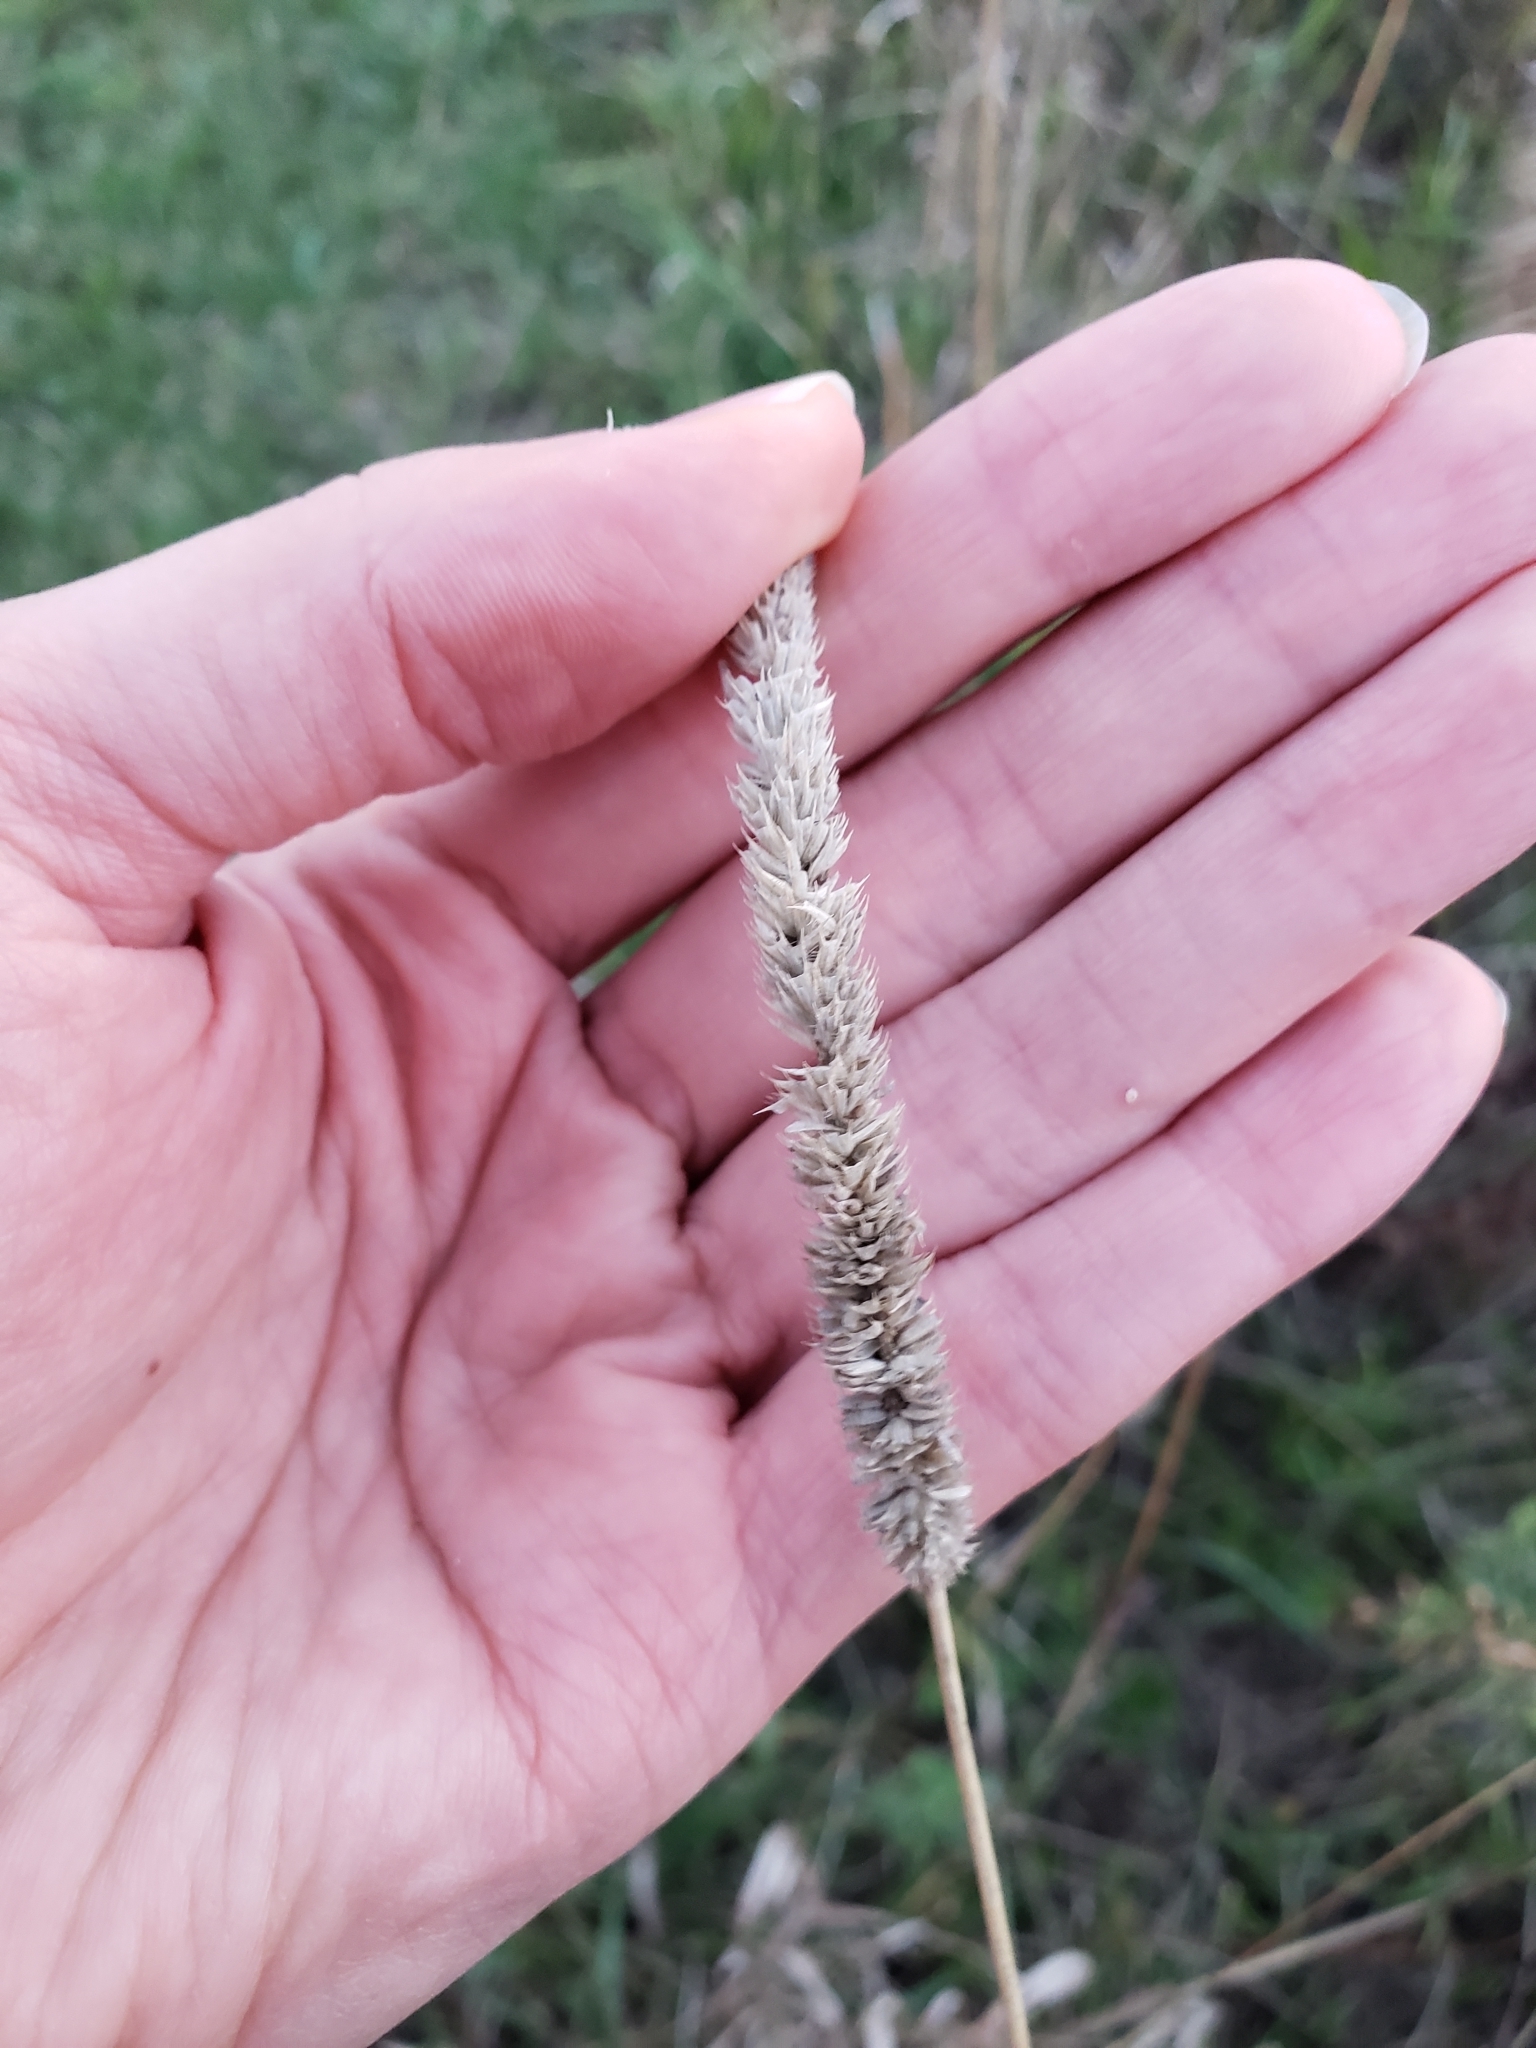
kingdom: Plantae
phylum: Tracheophyta
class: Liliopsida
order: Poales
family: Poaceae
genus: Phleum
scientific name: Phleum pratense
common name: Timothy grass
